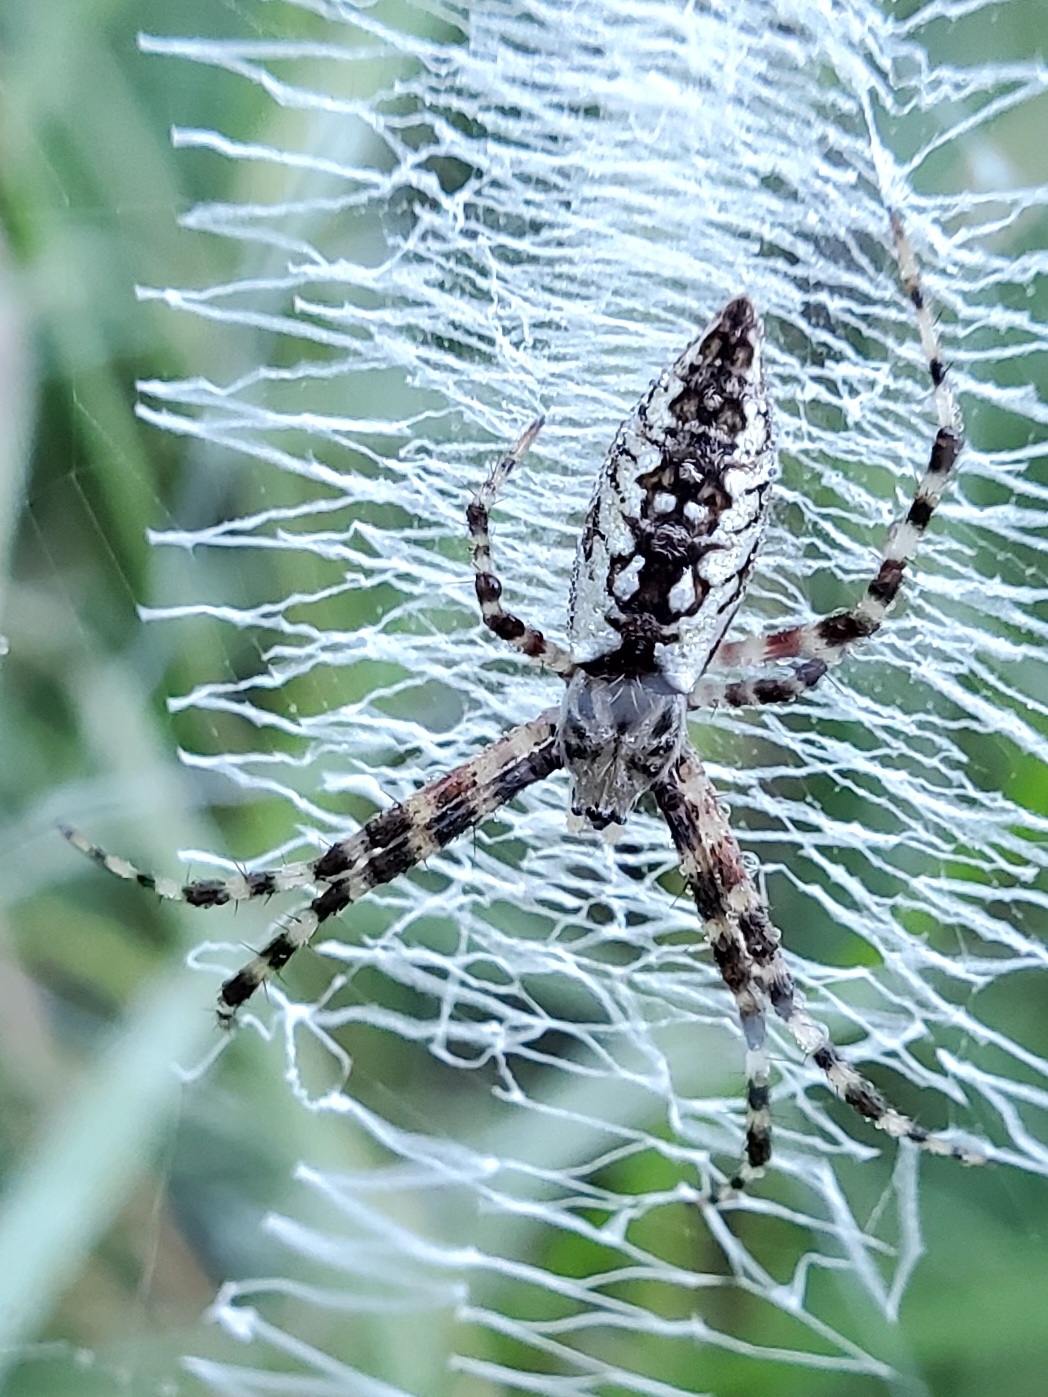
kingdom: Animalia
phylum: Arthropoda
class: Arachnida
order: Araneae
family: Araneidae
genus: Argiope
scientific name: Argiope aurantia
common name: Orb weavers
